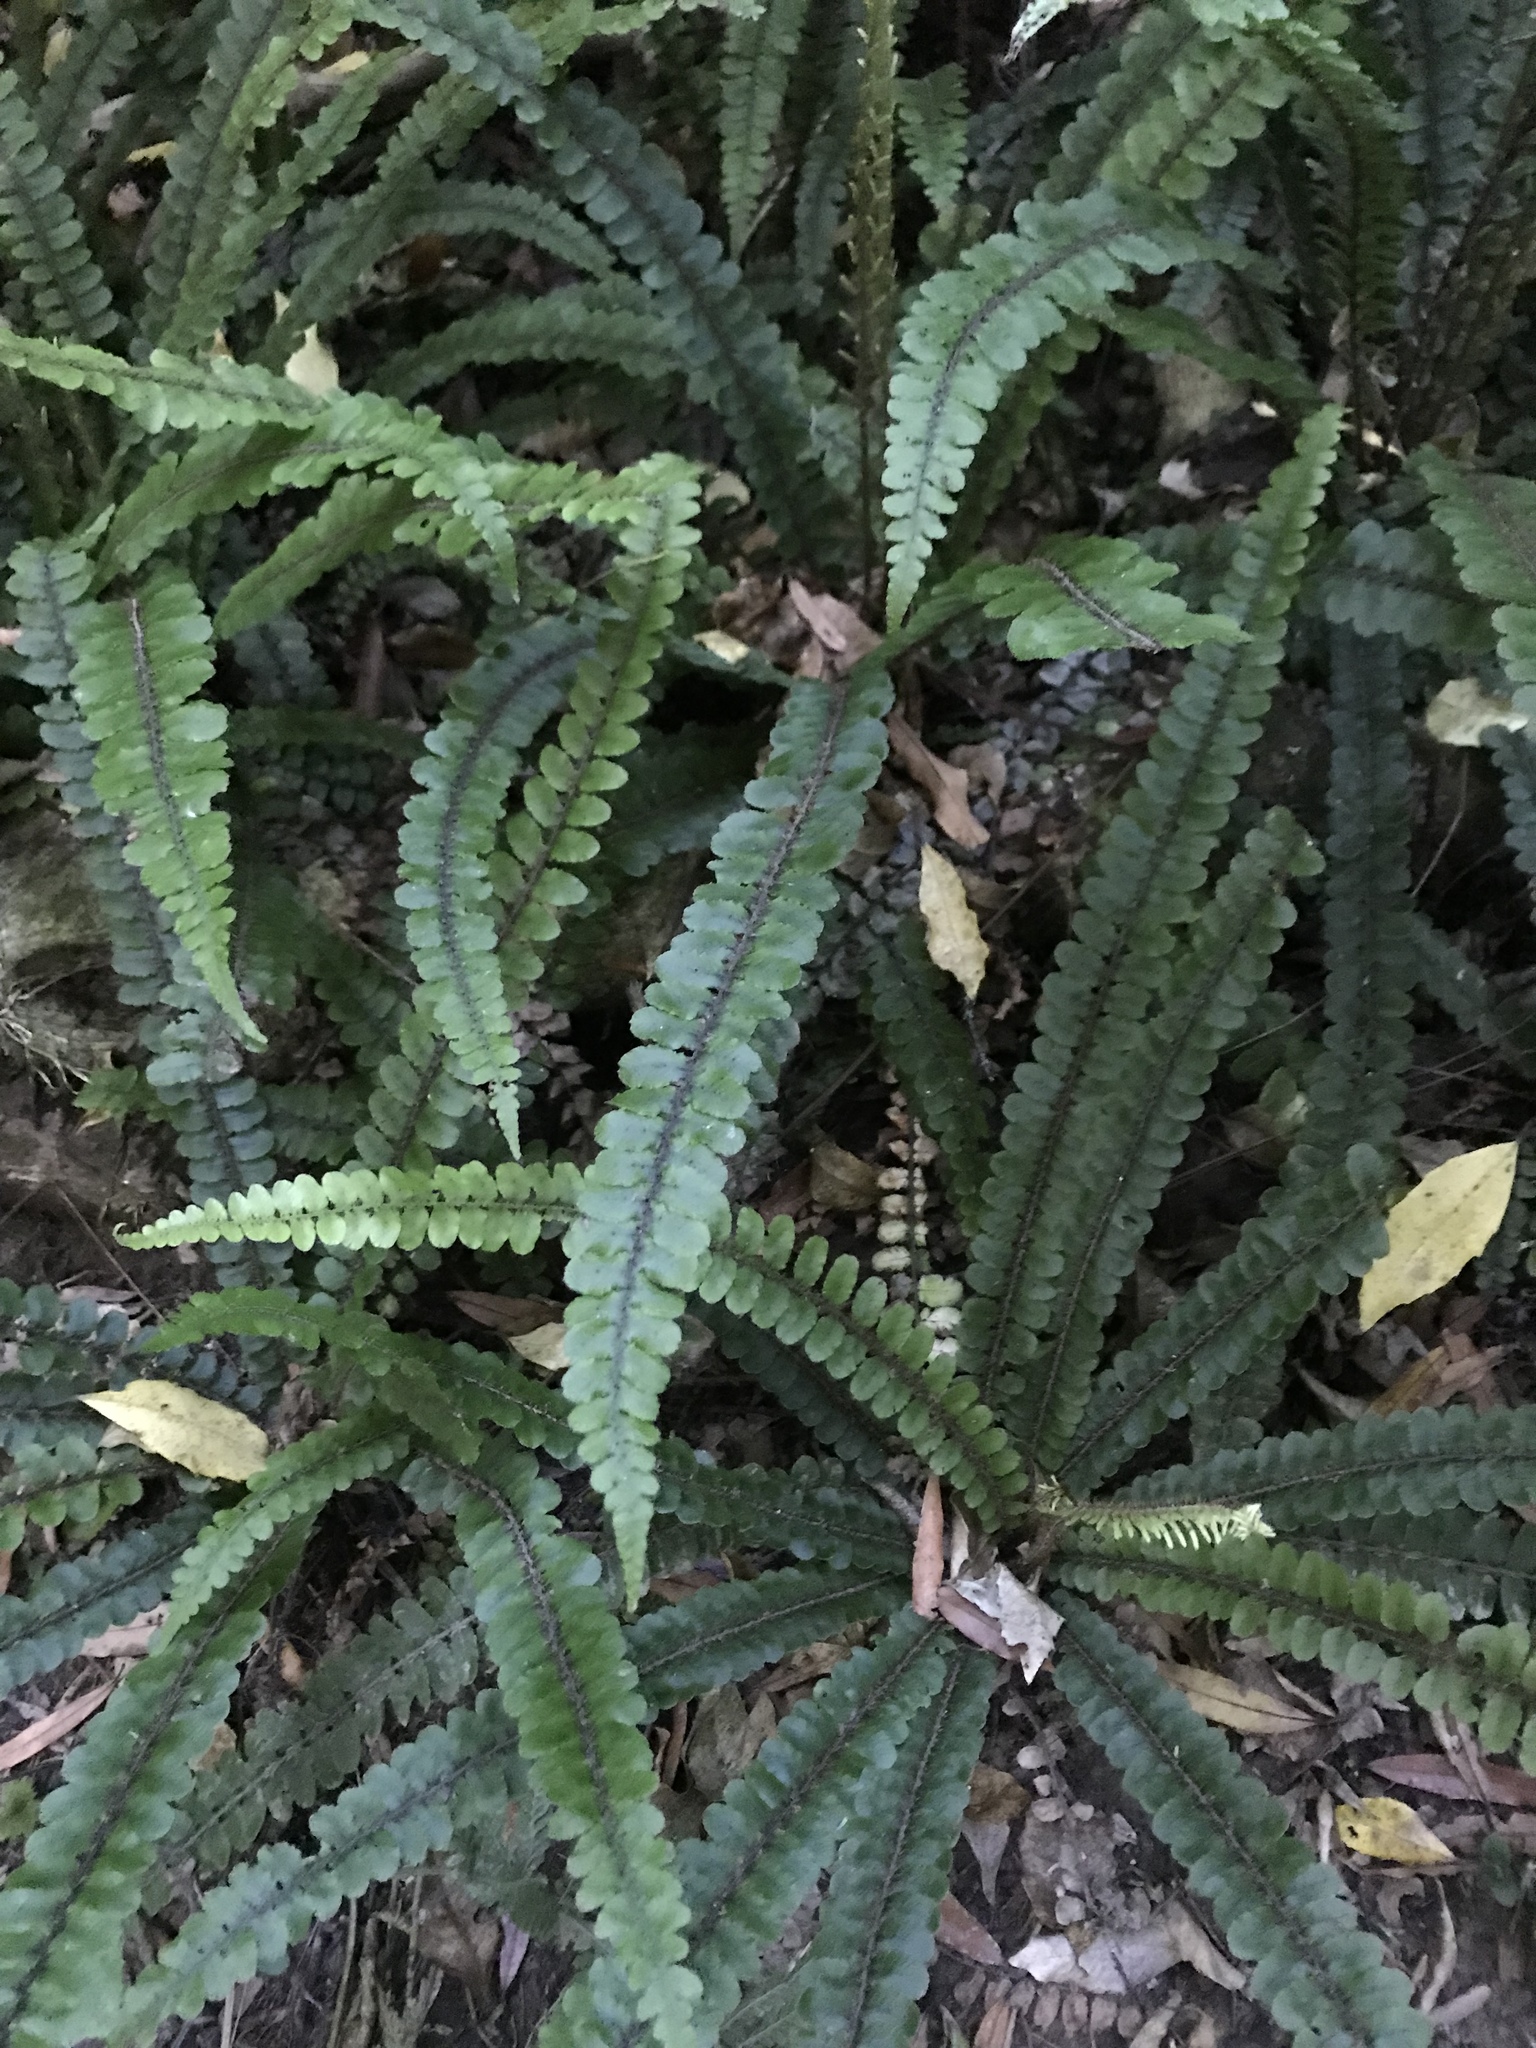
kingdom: Plantae
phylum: Tracheophyta
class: Polypodiopsida
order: Polypodiales
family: Blechnaceae
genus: Cranfillia
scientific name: Cranfillia fluviatilis
